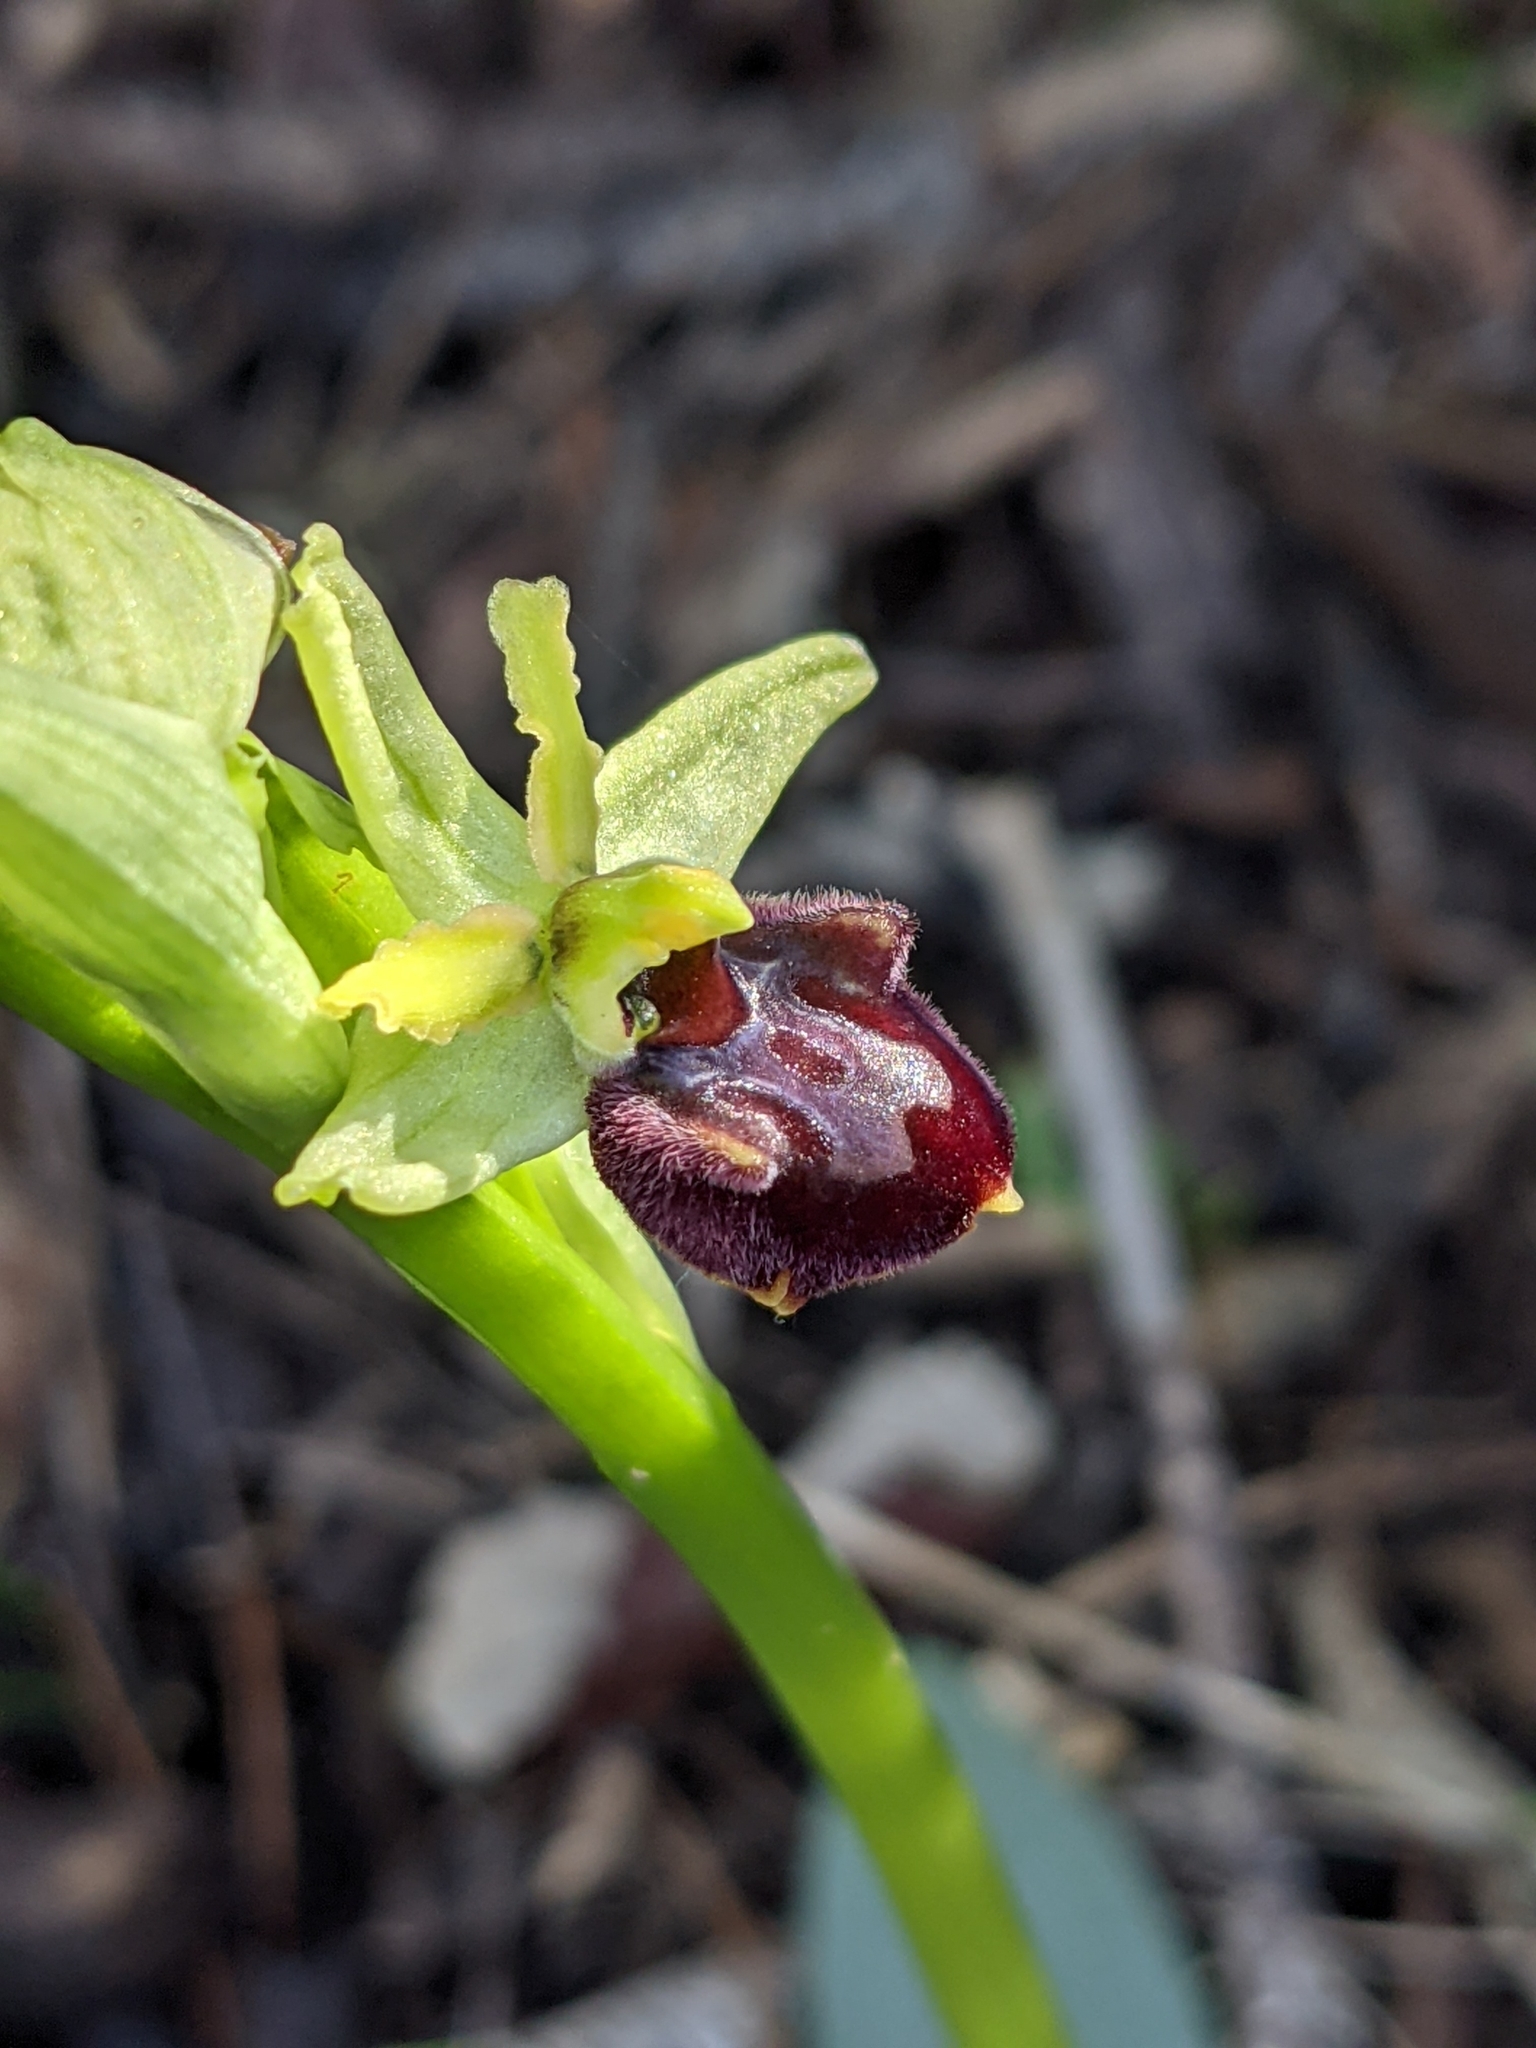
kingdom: Plantae
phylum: Tracheophyta
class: Liliopsida
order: Asparagales
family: Orchidaceae
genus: Ophrys
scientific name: Ophrys sphegodes
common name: Early spider-orchid
